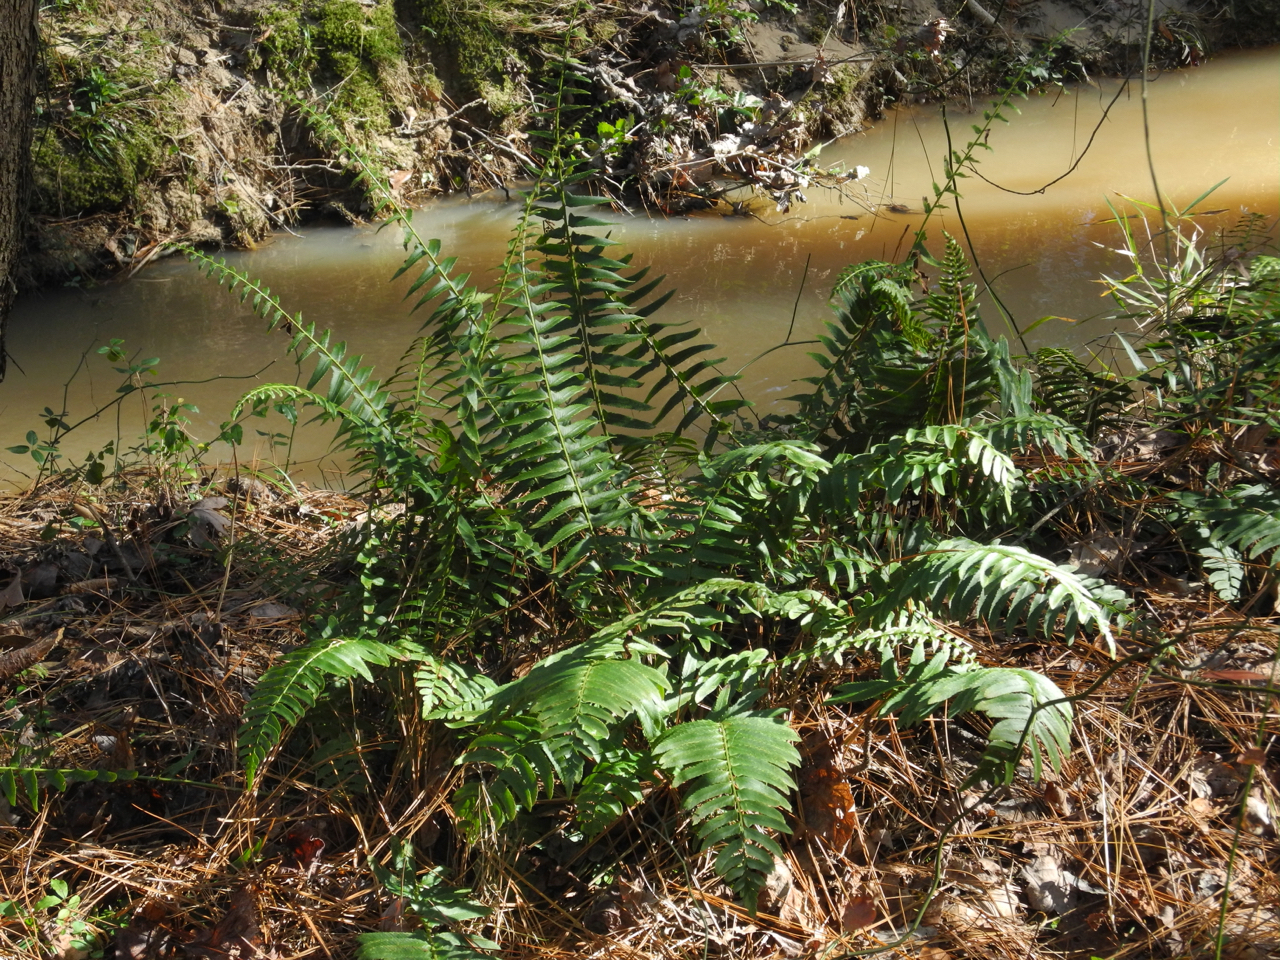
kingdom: Plantae
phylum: Tracheophyta
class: Polypodiopsida
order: Polypodiales
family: Dryopteridaceae
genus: Polystichum
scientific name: Polystichum acrostichoides
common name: Christmas fern
